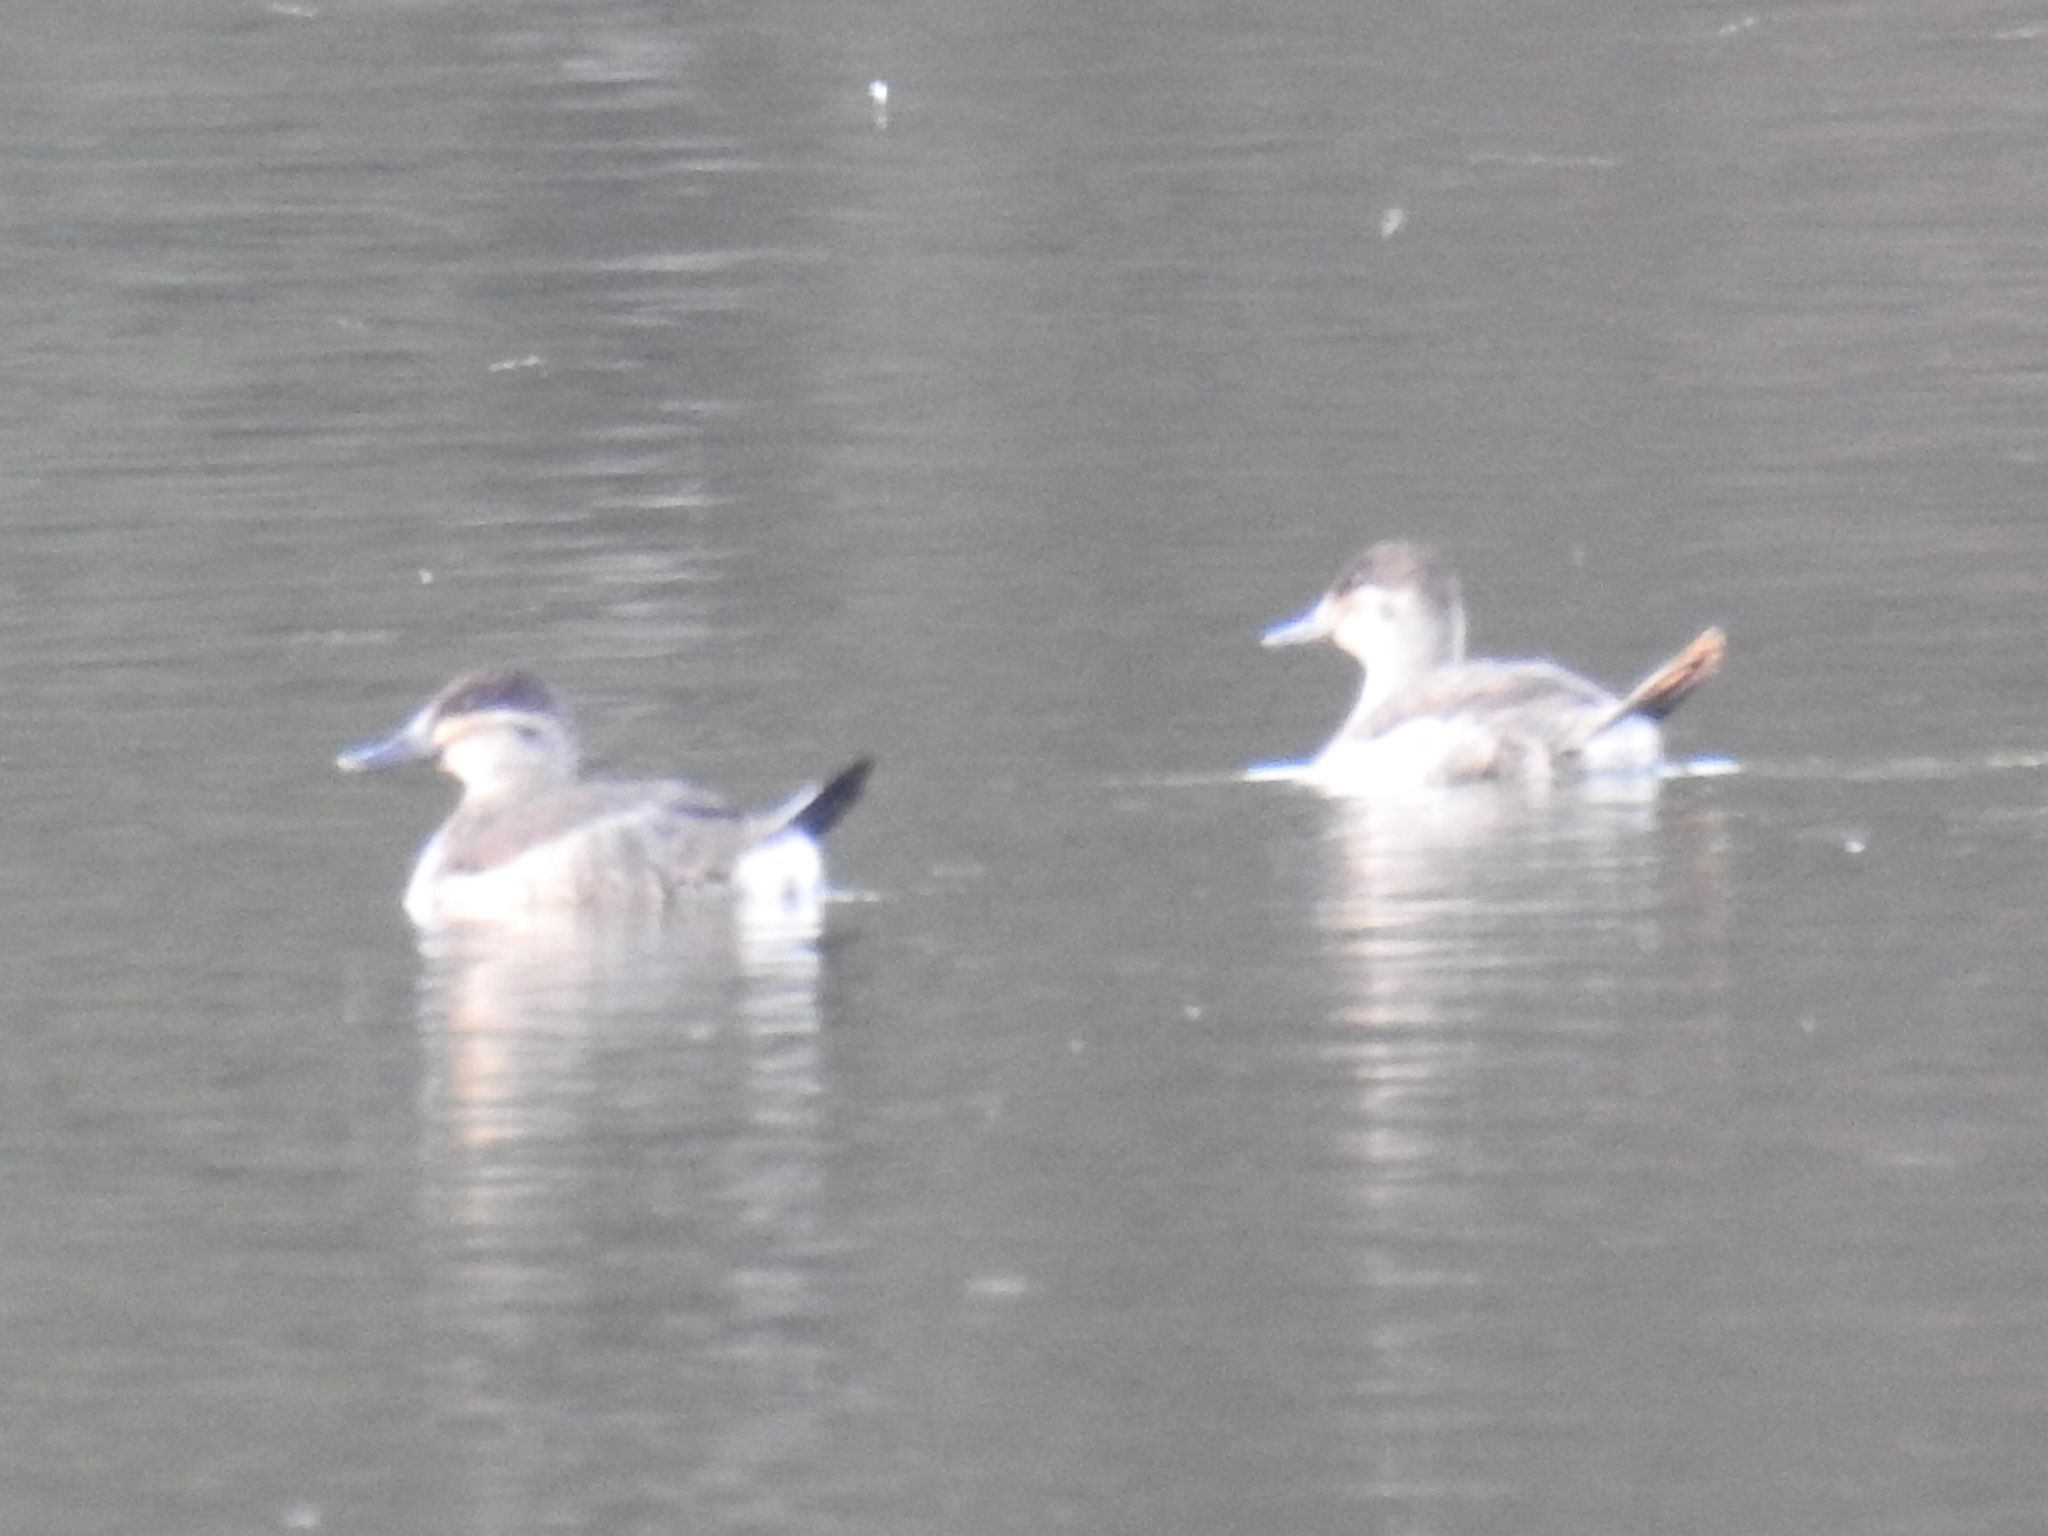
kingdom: Animalia
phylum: Chordata
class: Aves
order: Anseriformes
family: Anatidae
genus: Oxyura
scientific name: Oxyura jamaicensis
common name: Ruddy duck
